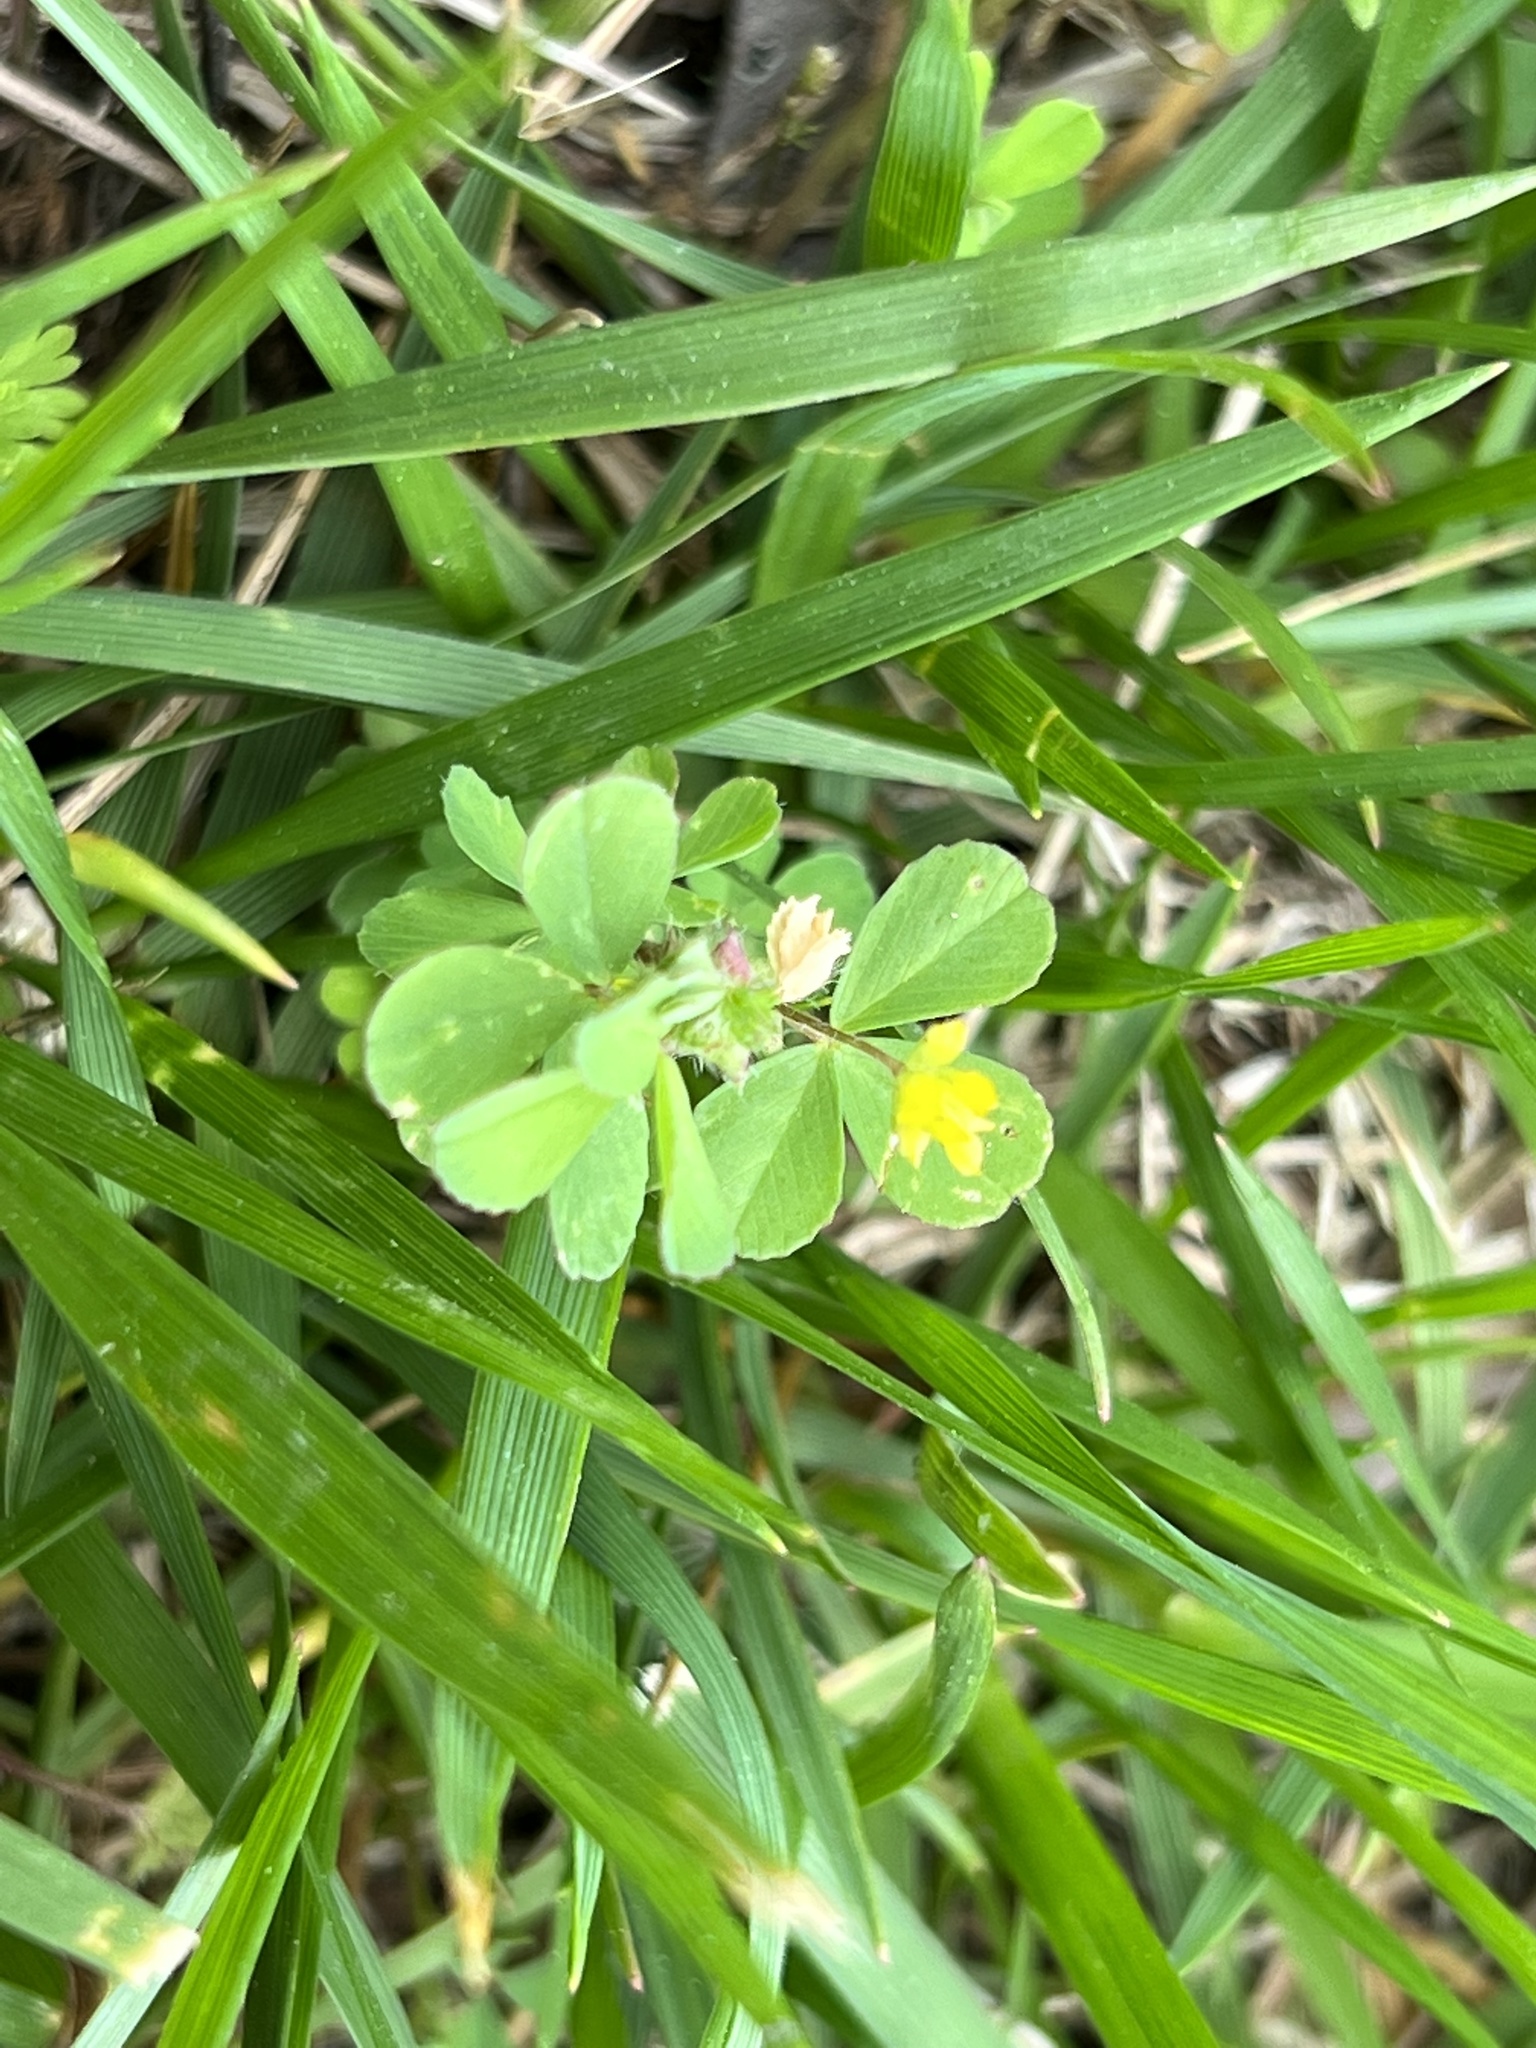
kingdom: Plantae
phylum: Tracheophyta
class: Magnoliopsida
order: Fabales
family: Fabaceae
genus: Trifolium
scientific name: Trifolium dubium
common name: Suckling clover
